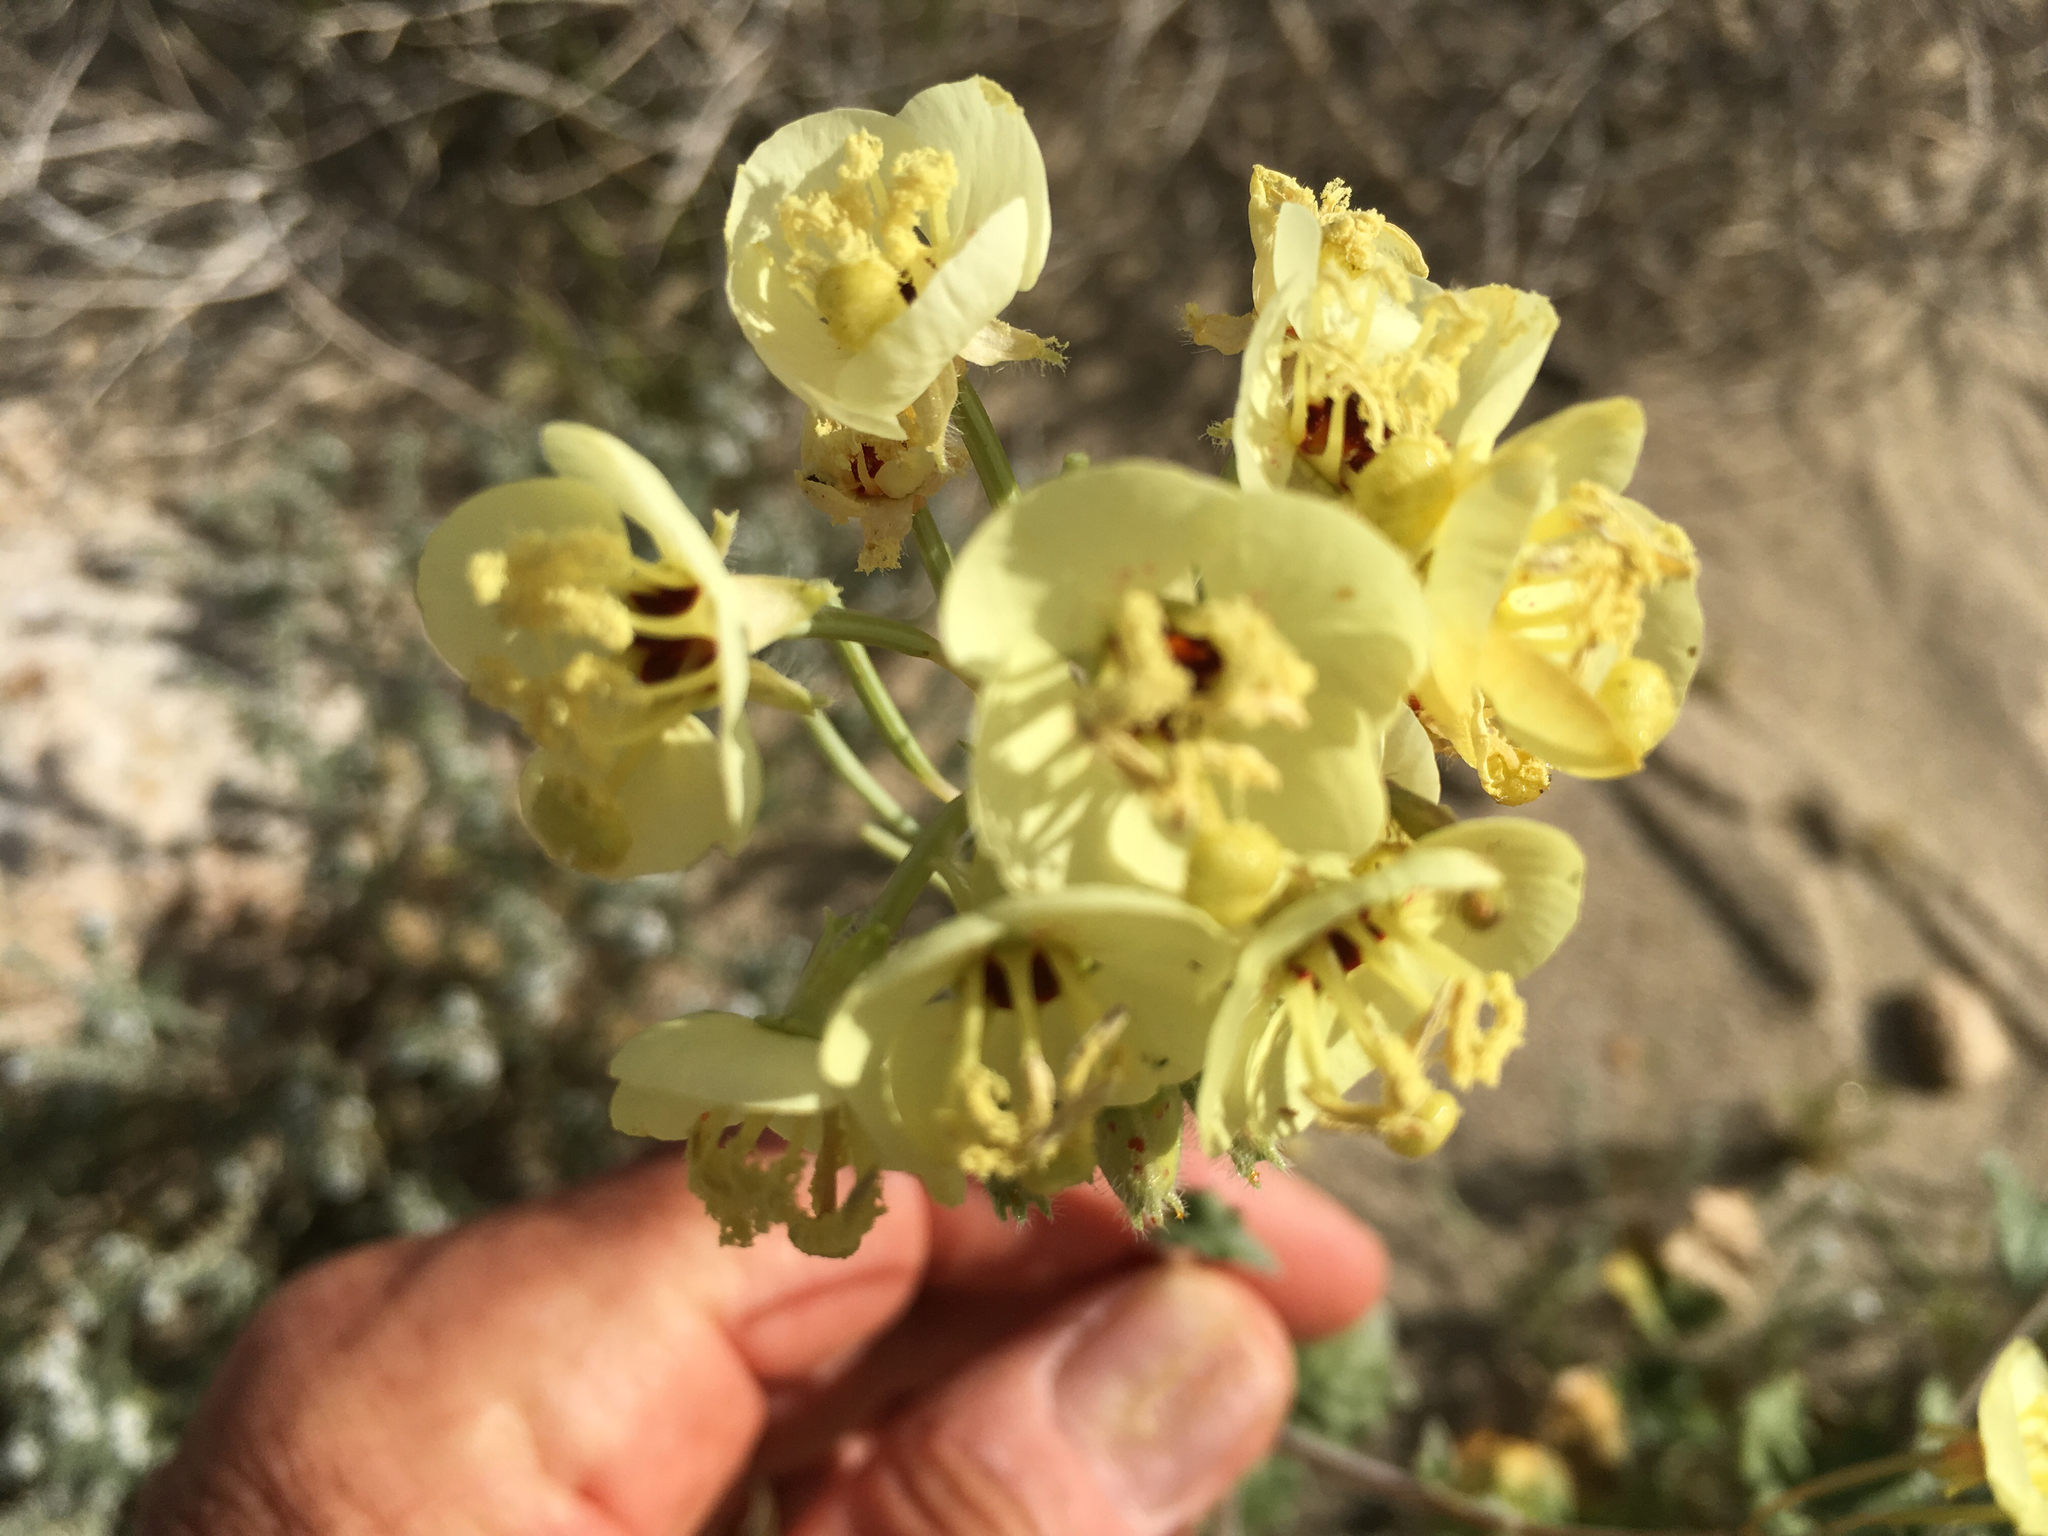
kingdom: Plantae
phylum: Tracheophyta
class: Magnoliopsida
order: Myrtales
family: Onagraceae
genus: Chylismia
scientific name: Chylismia claviformis
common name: Browneyes
